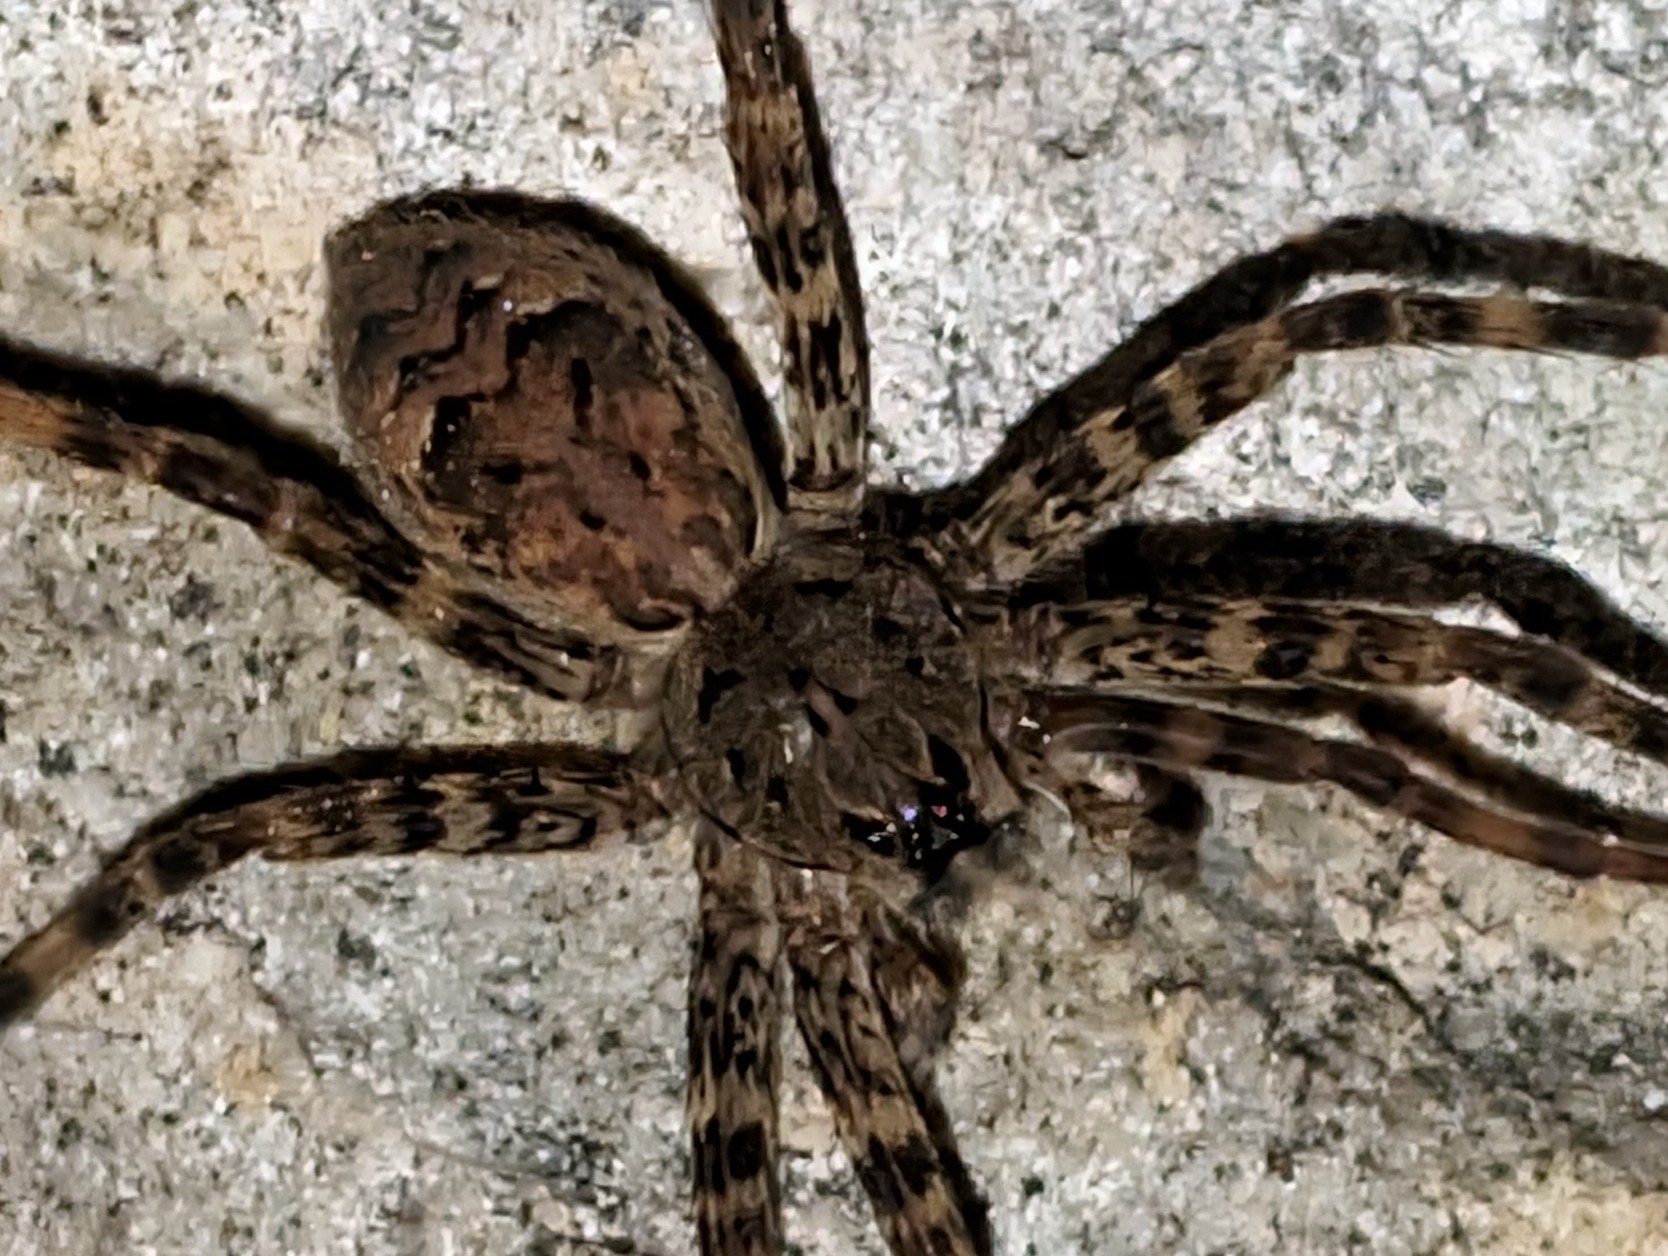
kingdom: Animalia
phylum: Arthropoda
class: Arachnida
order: Araneae
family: Pisauridae
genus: Dolomedes
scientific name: Dolomedes tenebrosus
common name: Dark fishing spider
